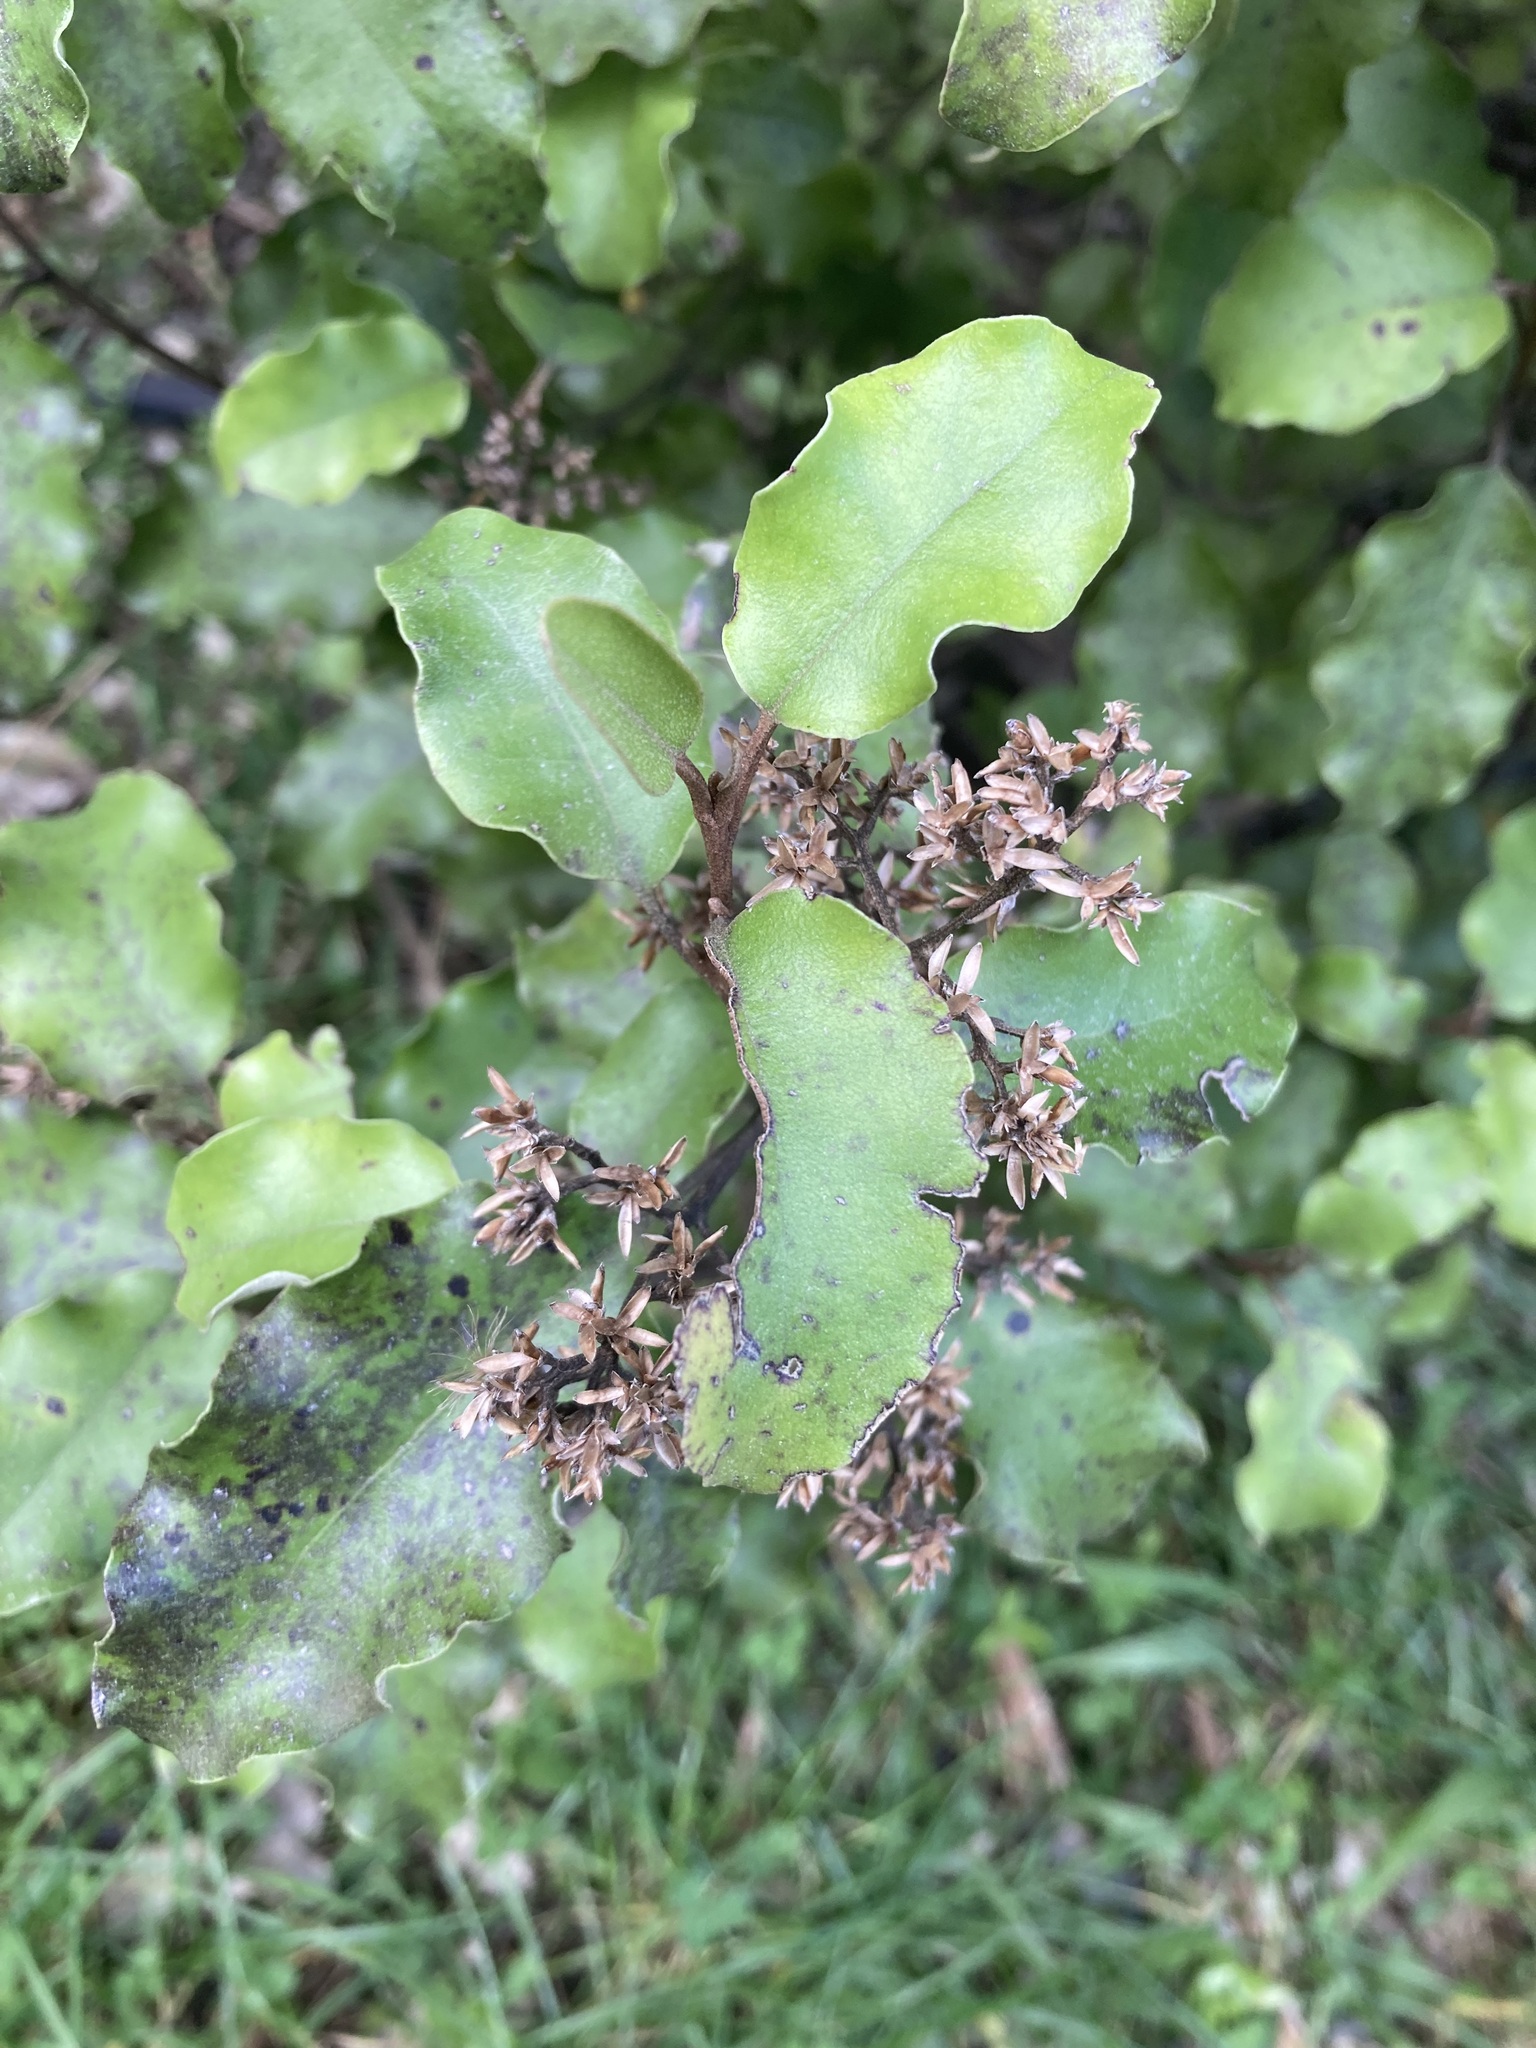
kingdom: Plantae
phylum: Tracheophyta
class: Magnoliopsida
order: Asterales
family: Asteraceae
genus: Olearia
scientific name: Olearia paniculata
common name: Akiraho
